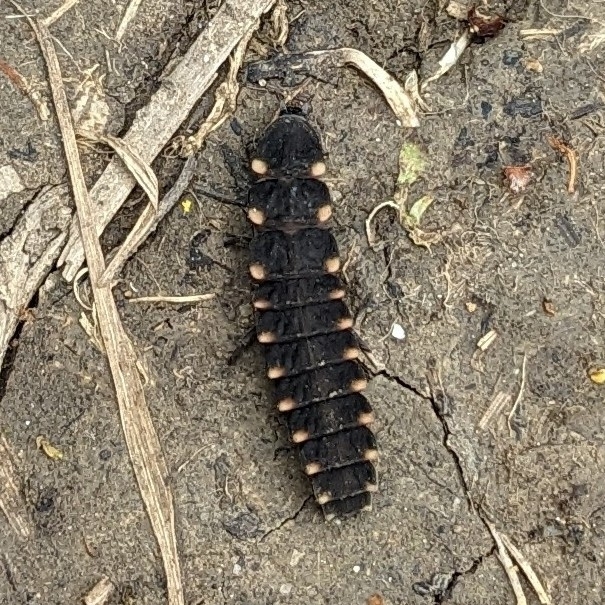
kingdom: Animalia
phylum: Arthropoda
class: Insecta
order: Coleoptera
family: Lampyridae
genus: Lampyris
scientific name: Lampyris noctiluca
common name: Glow-worm
